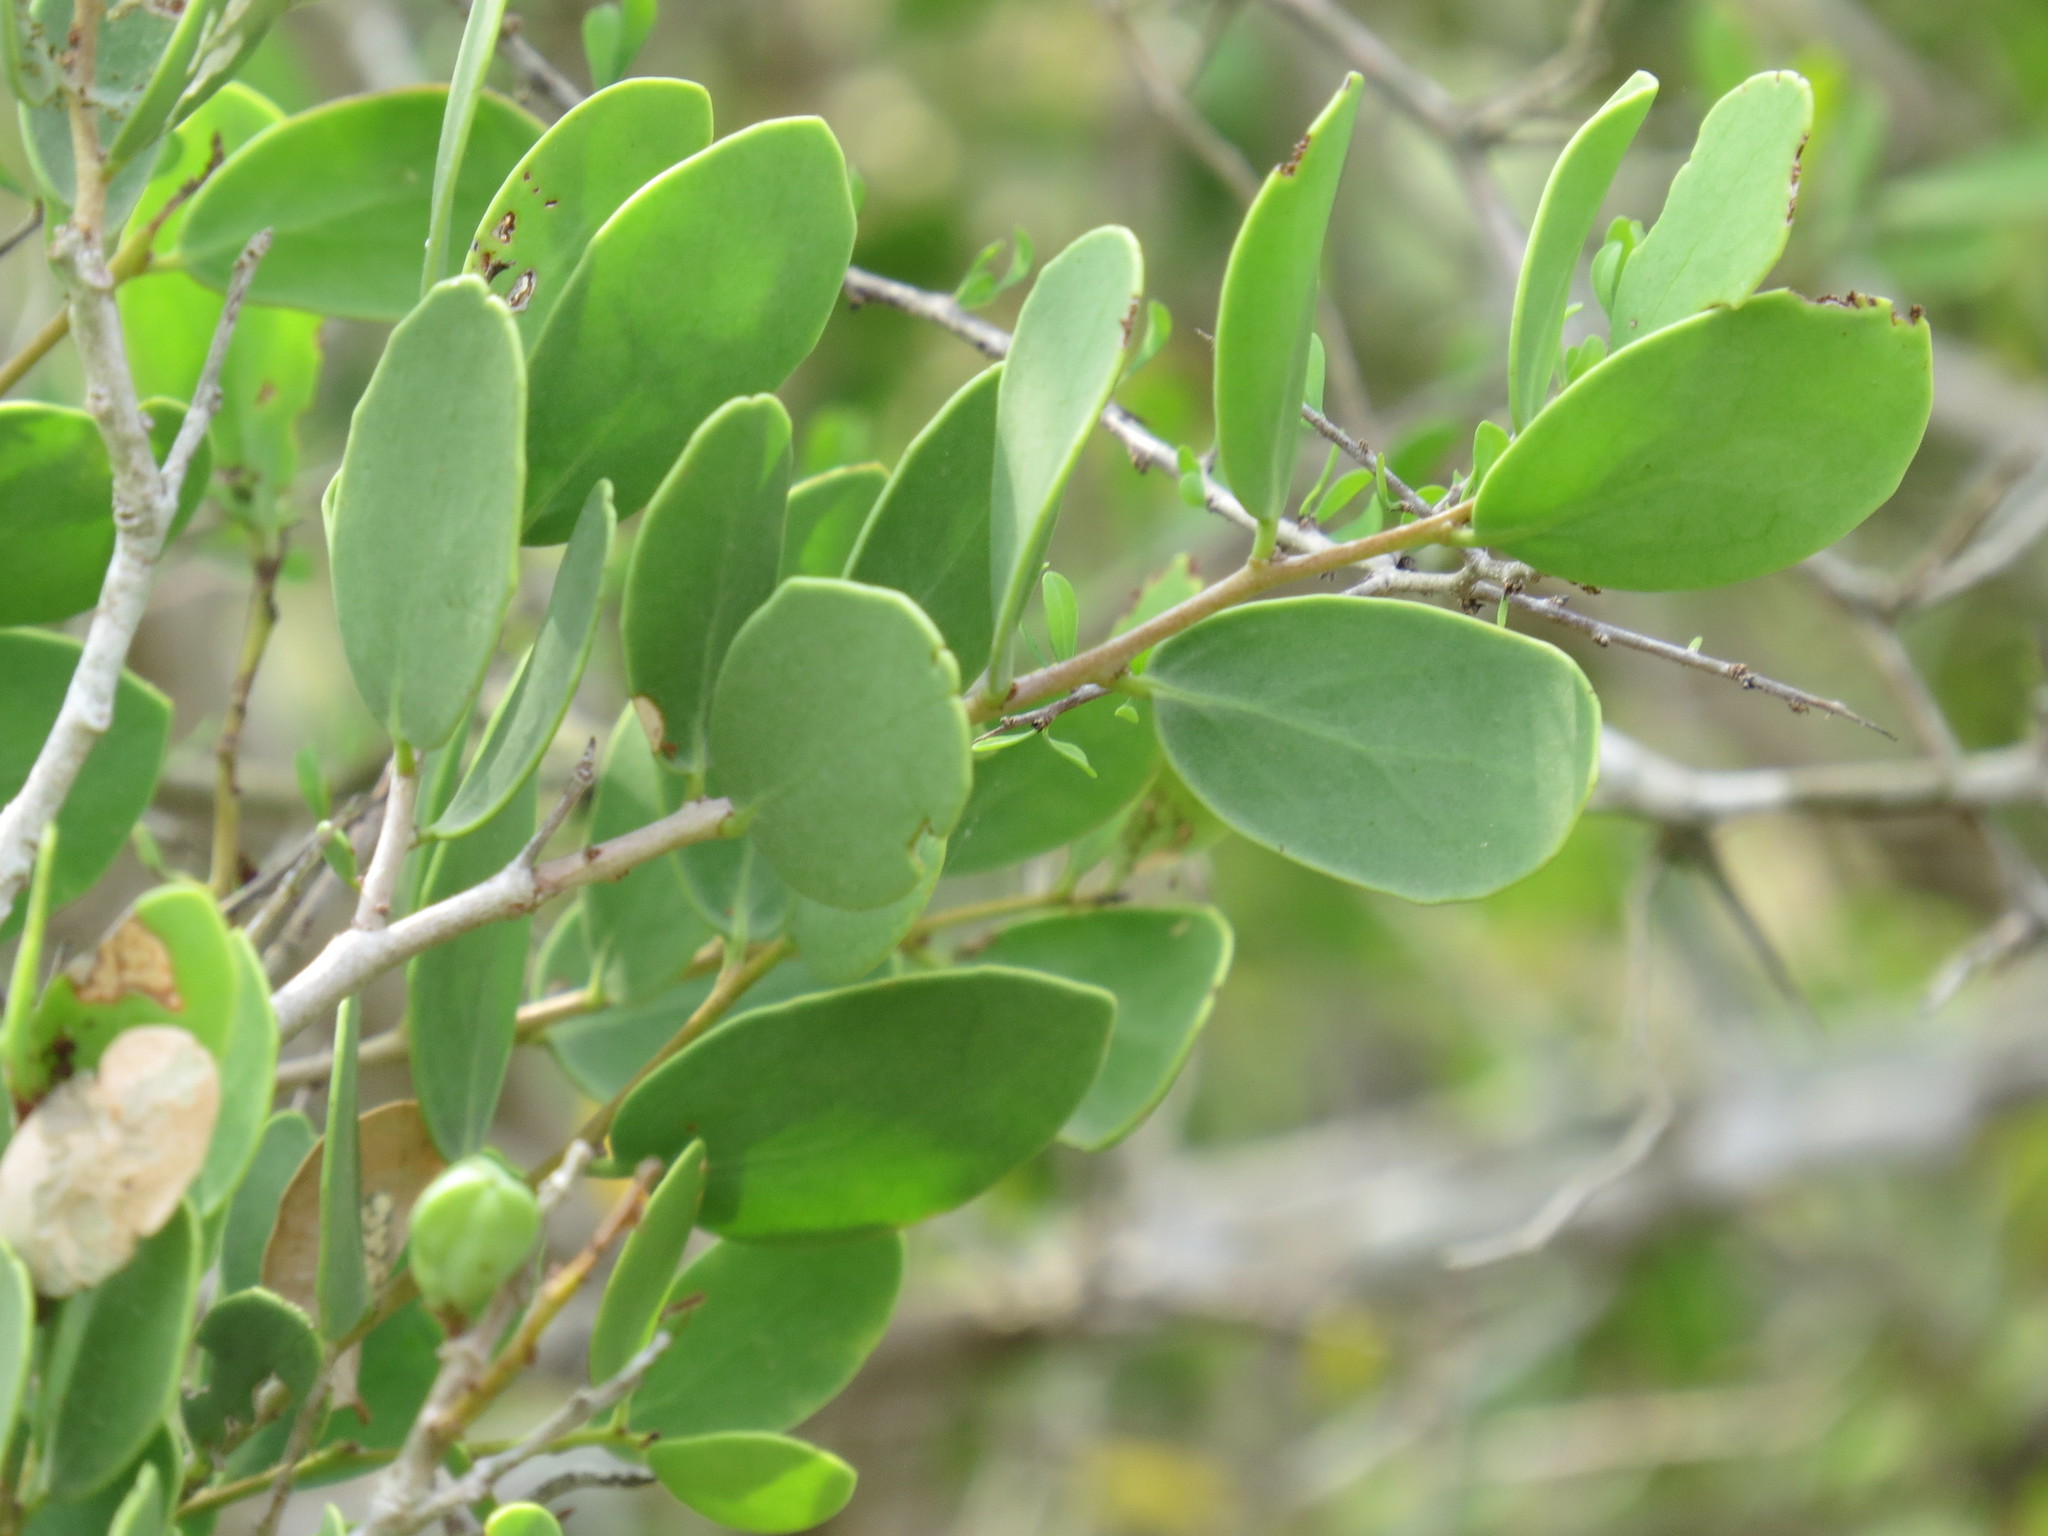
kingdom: Plantae
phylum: Tracheophyta
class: Magnoliopsida
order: Celastrales
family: Celastraceae
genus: Tricerma
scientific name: Tricerma phyllanthoides
